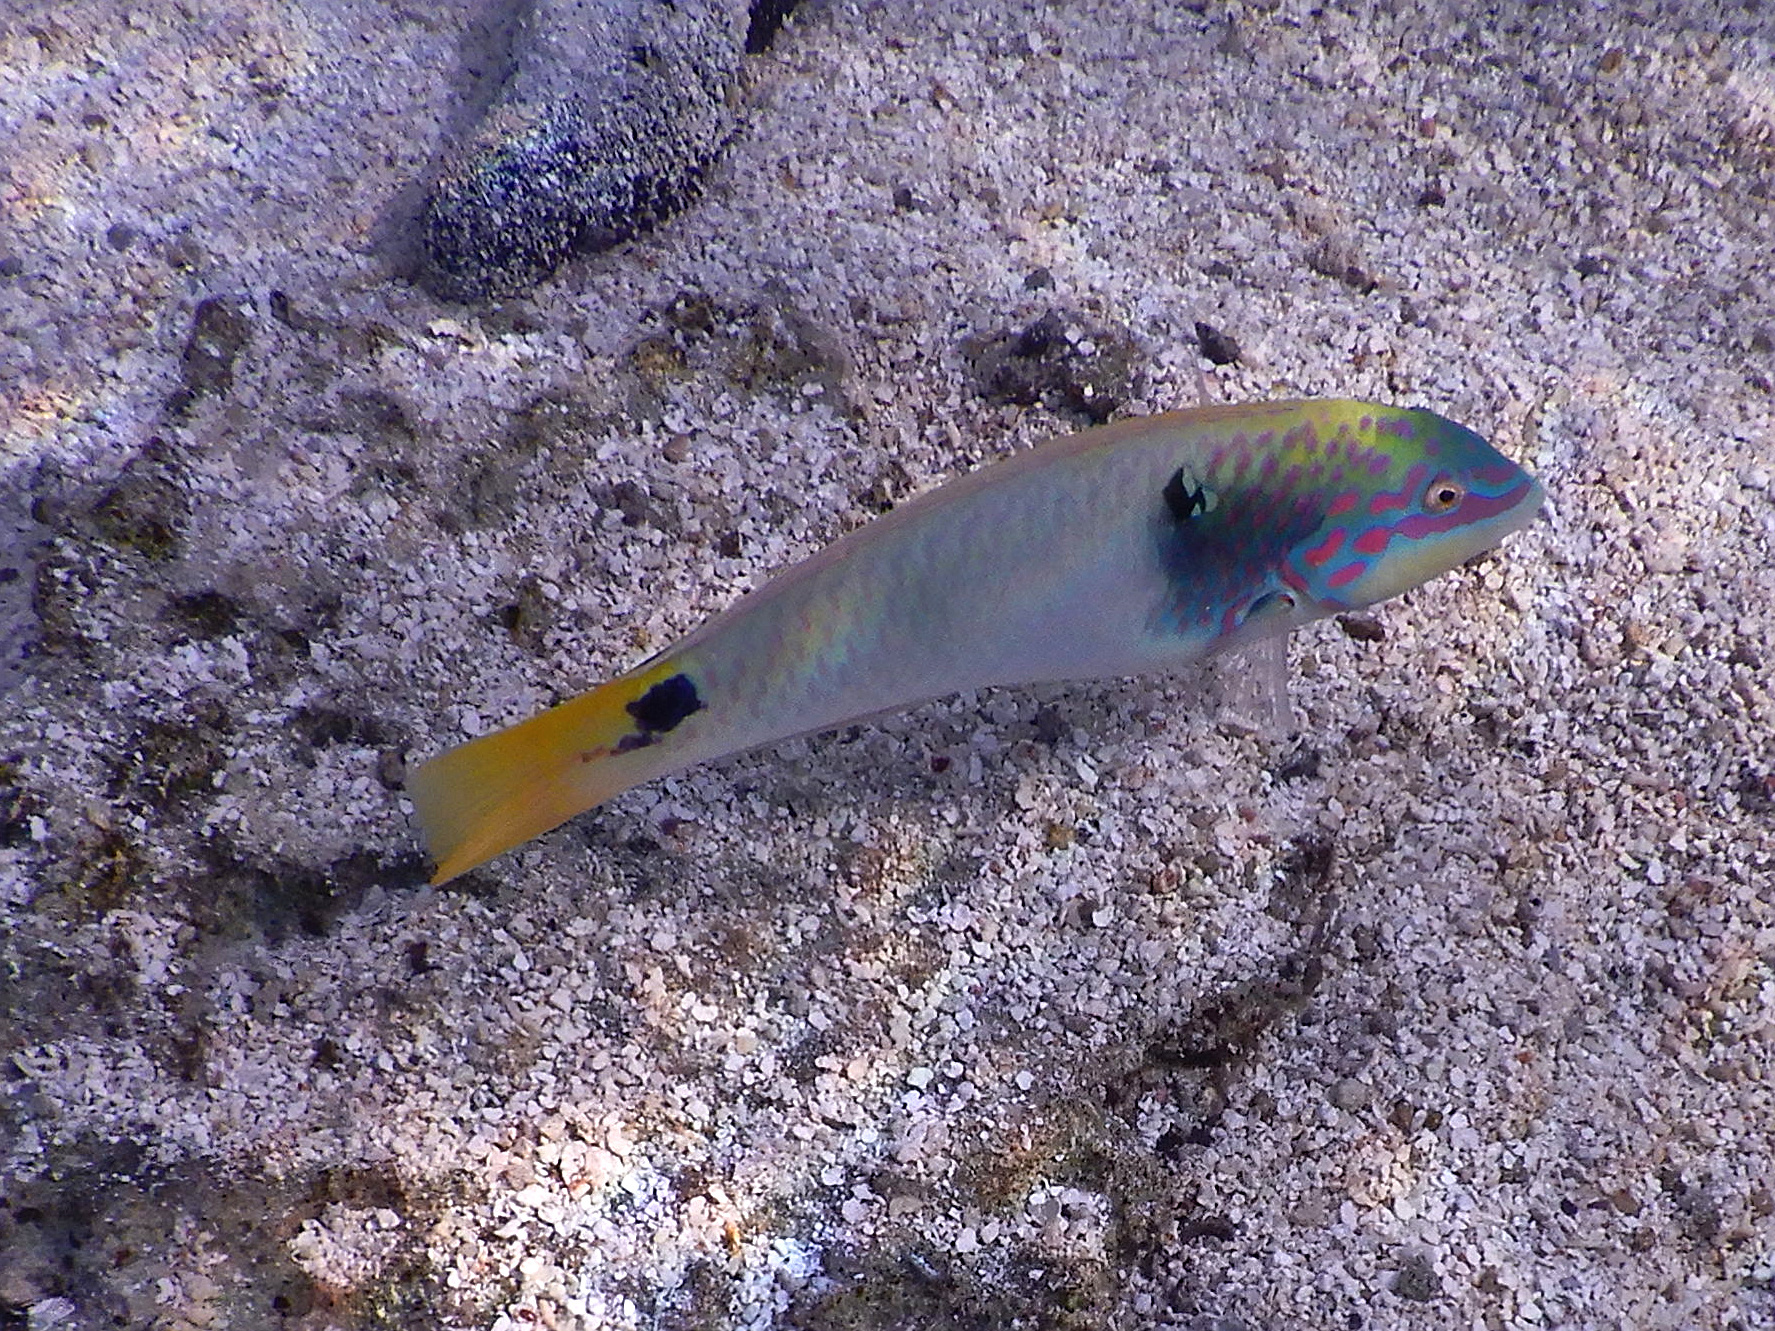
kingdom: Animalia
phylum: Chordata
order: Perciformes
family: Labridae
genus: Halichoeres
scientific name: Halichoeres trimaculatus
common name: Three-spot wrasse
